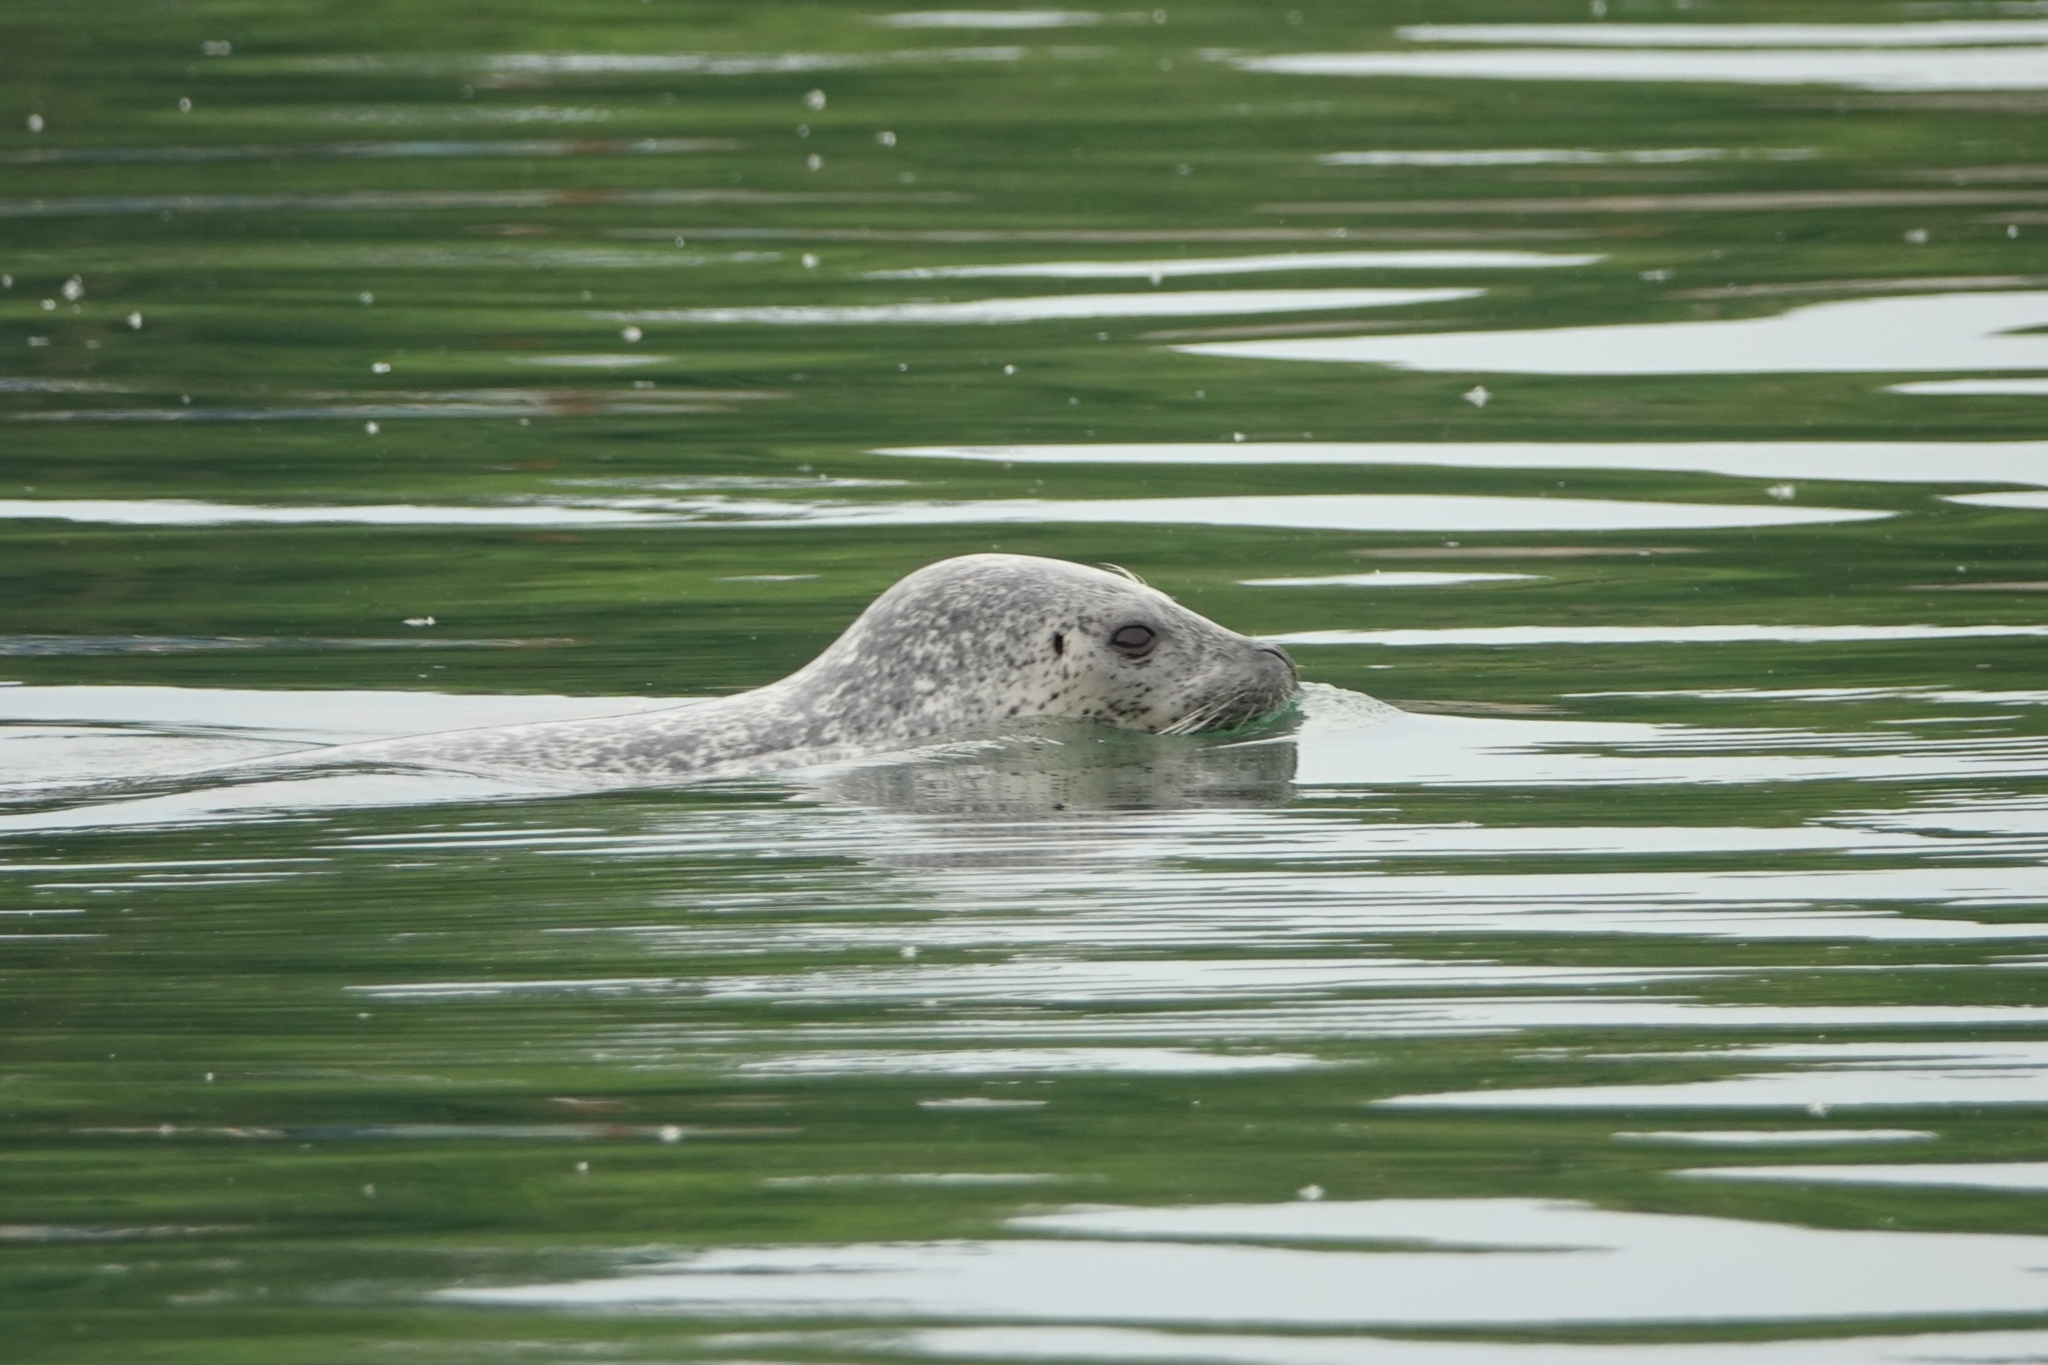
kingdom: Animalia
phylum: Chordata
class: Mammalia
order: Carnivora
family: Phocidae
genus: Phoca
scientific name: Phoca largha
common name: Spotted seal
